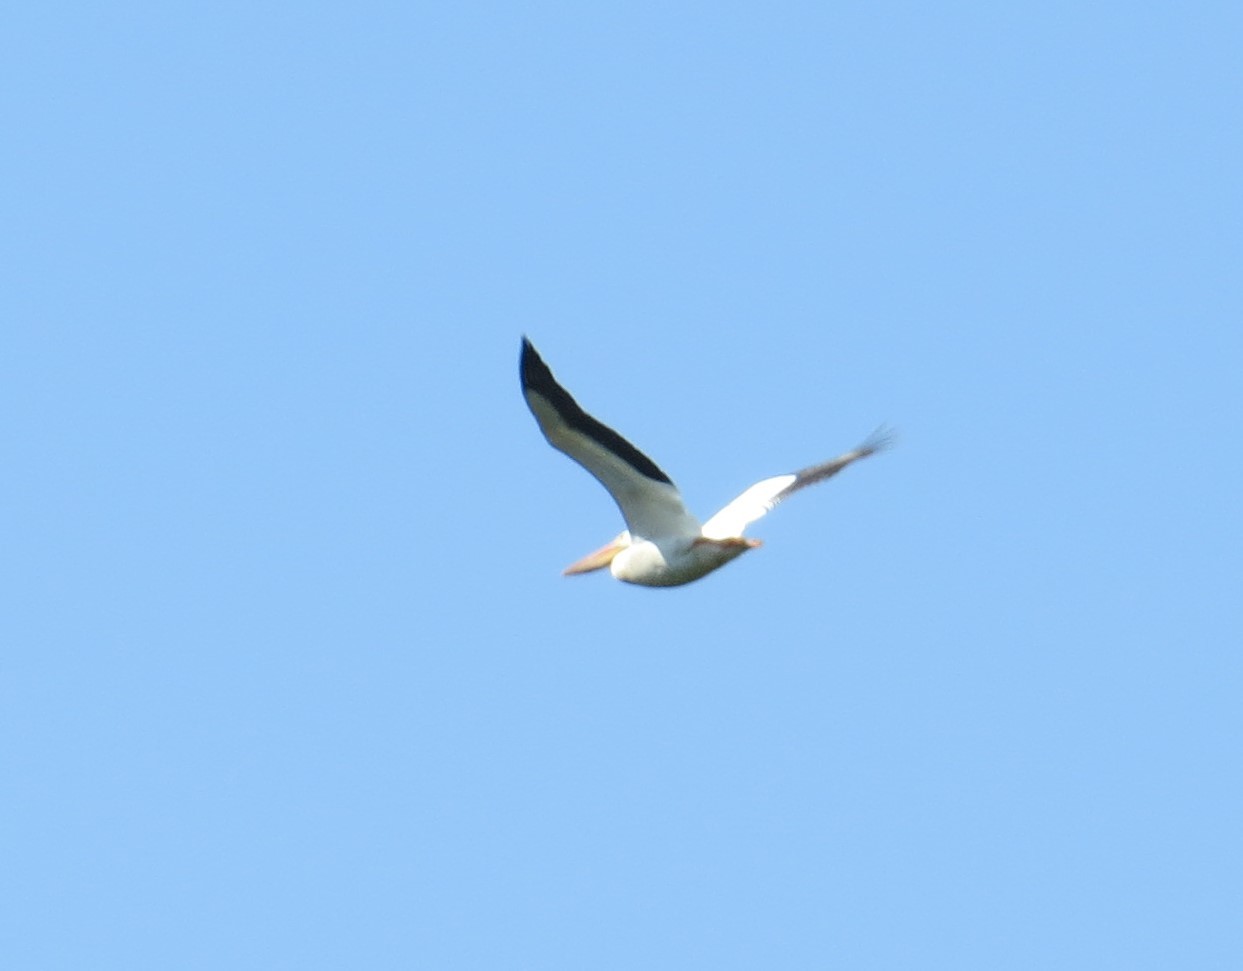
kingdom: Animalia
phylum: Chordata
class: Aves
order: Pelecaniformes
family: Pelecanidae
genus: Pelecanus
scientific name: Pelecanus erythrorhynchos
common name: American white pelican
